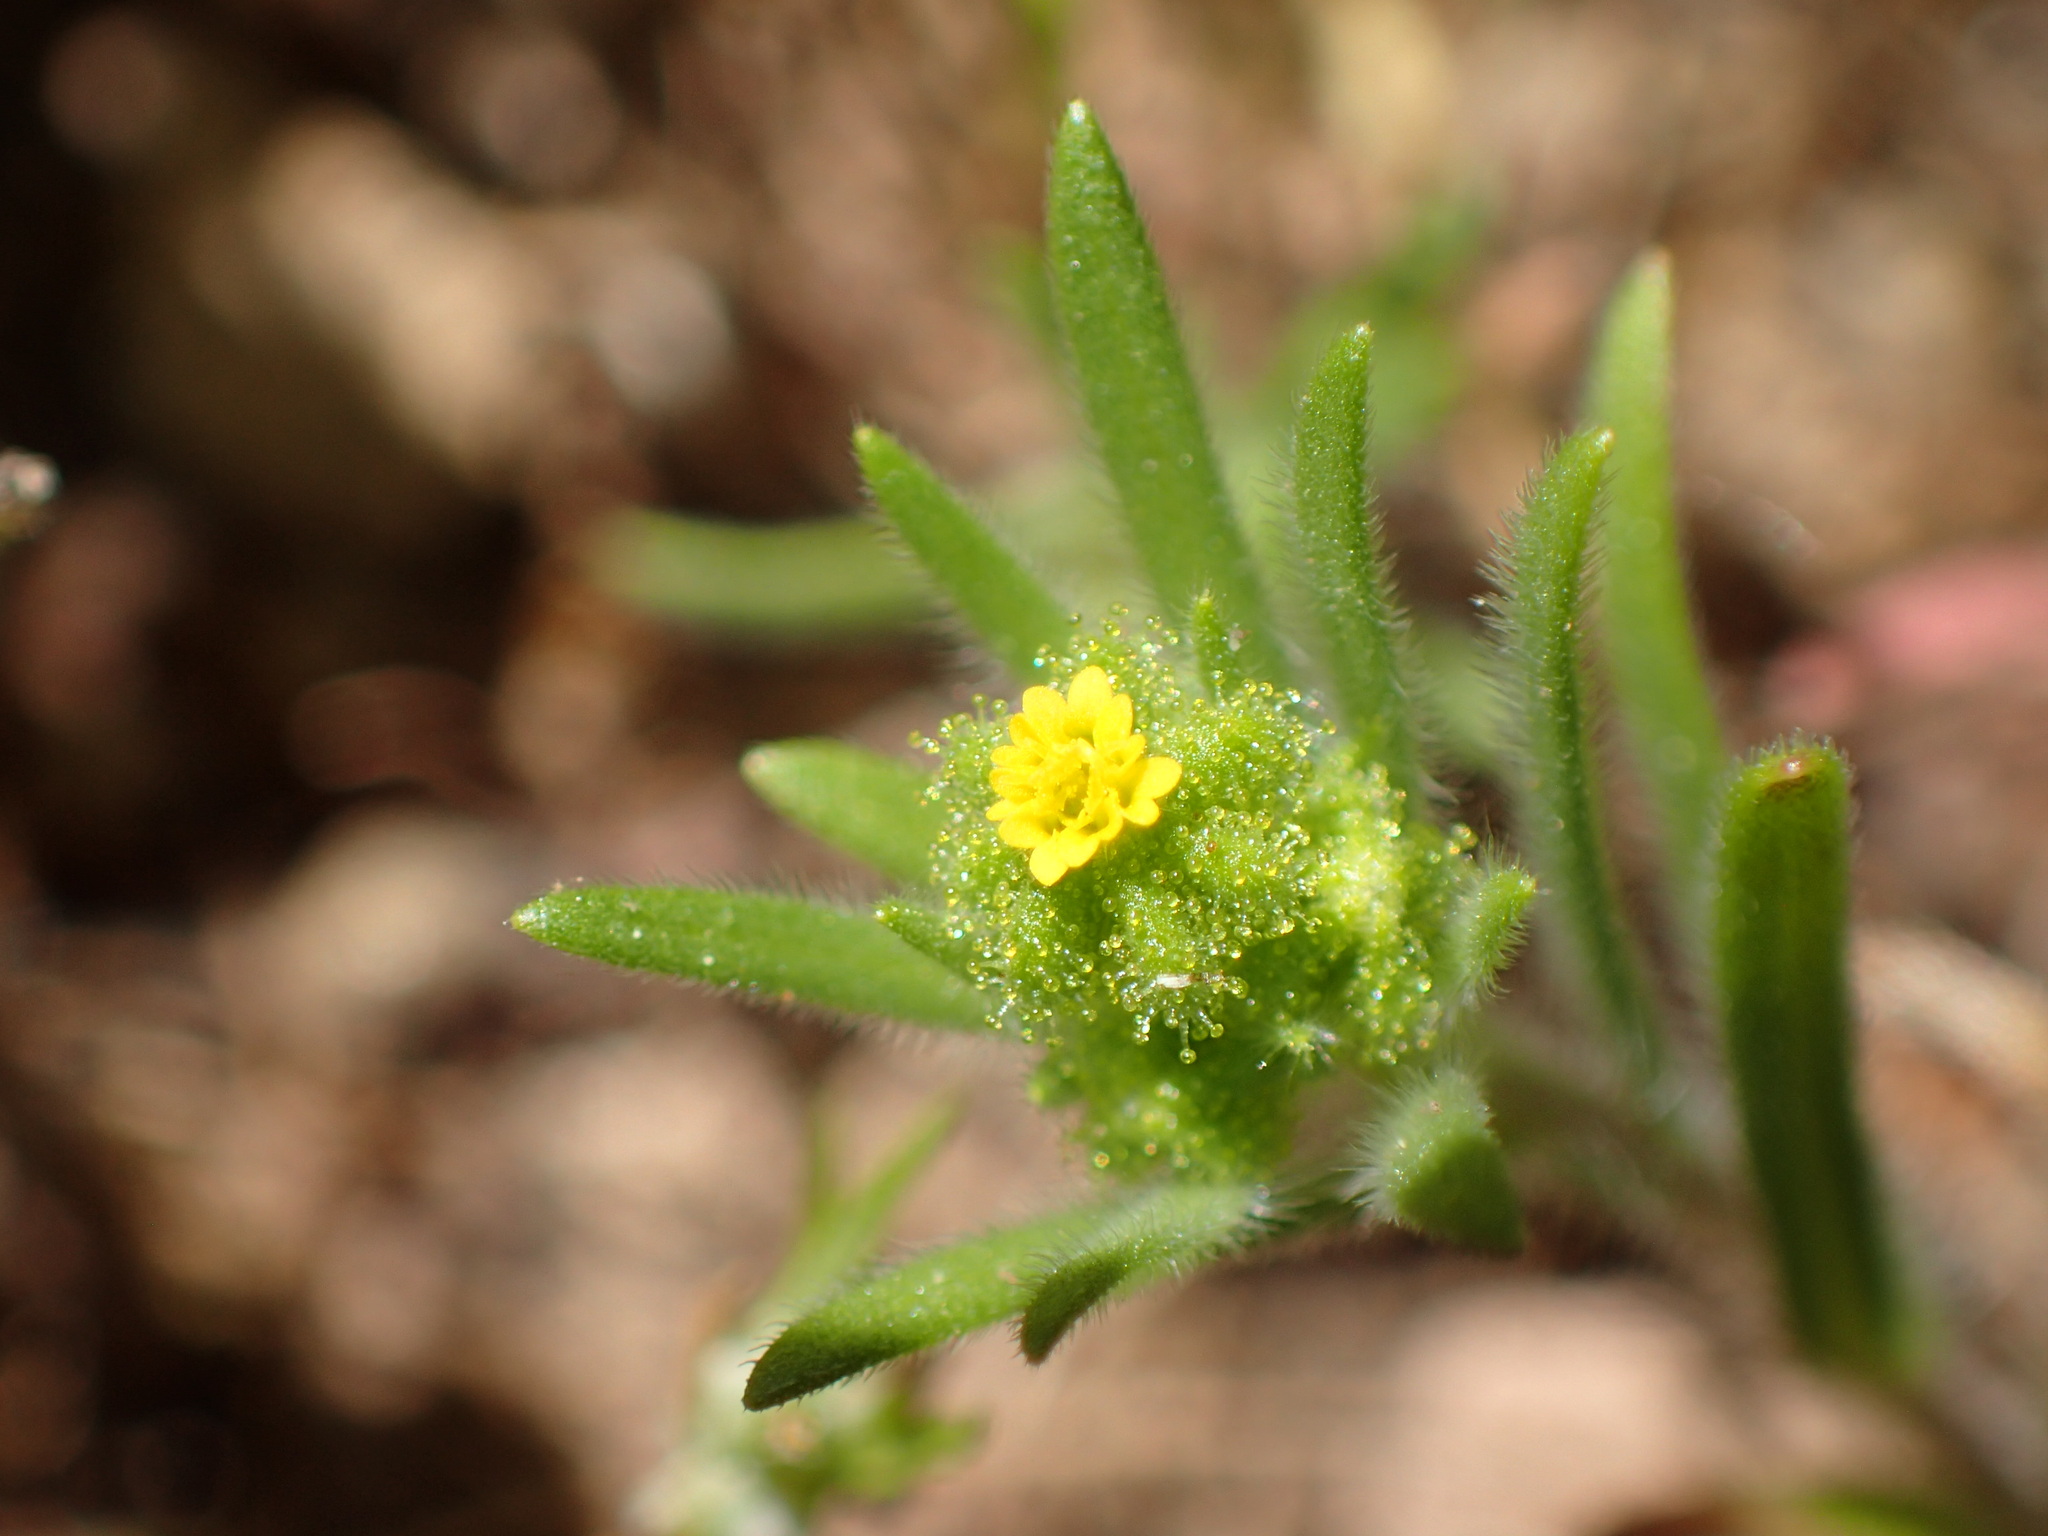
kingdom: Plantae
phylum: Tracheophyta
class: Magnoliopsida
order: Asterales
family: Asteraceae
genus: Madia
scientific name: Madia exigua
